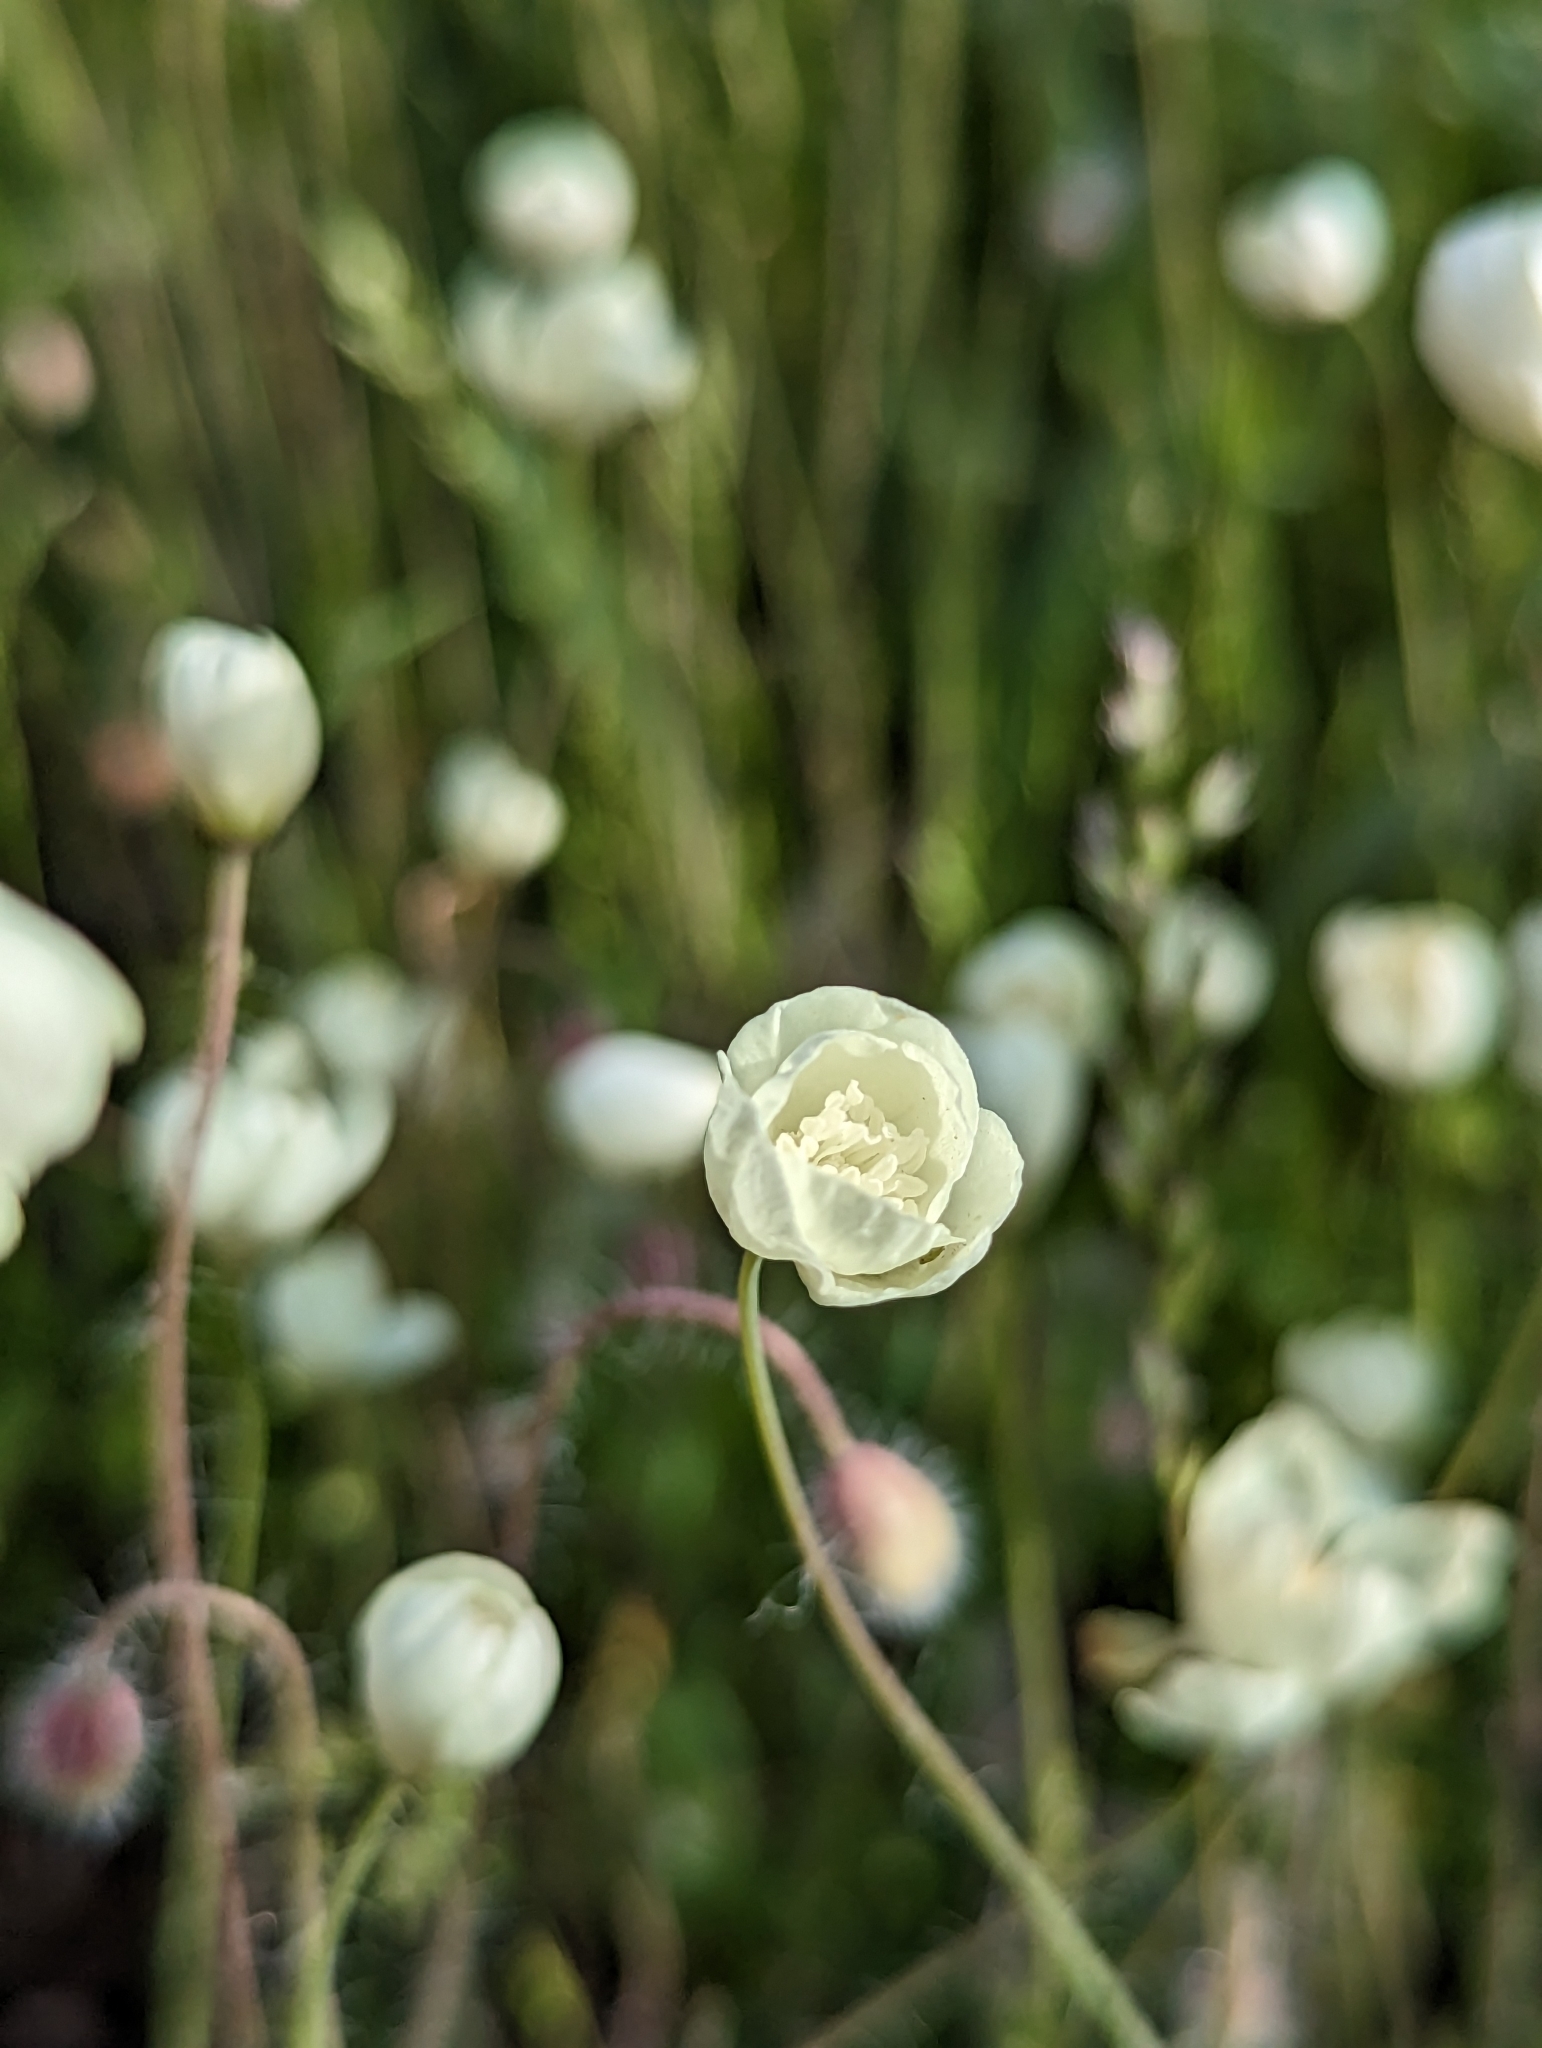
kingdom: Plantae
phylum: Tracheophyta
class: Magnoliopsida
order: Ranunculales
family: Papaveraceae
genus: Platystemon
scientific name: Platystemon californicus
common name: Cream-cups
